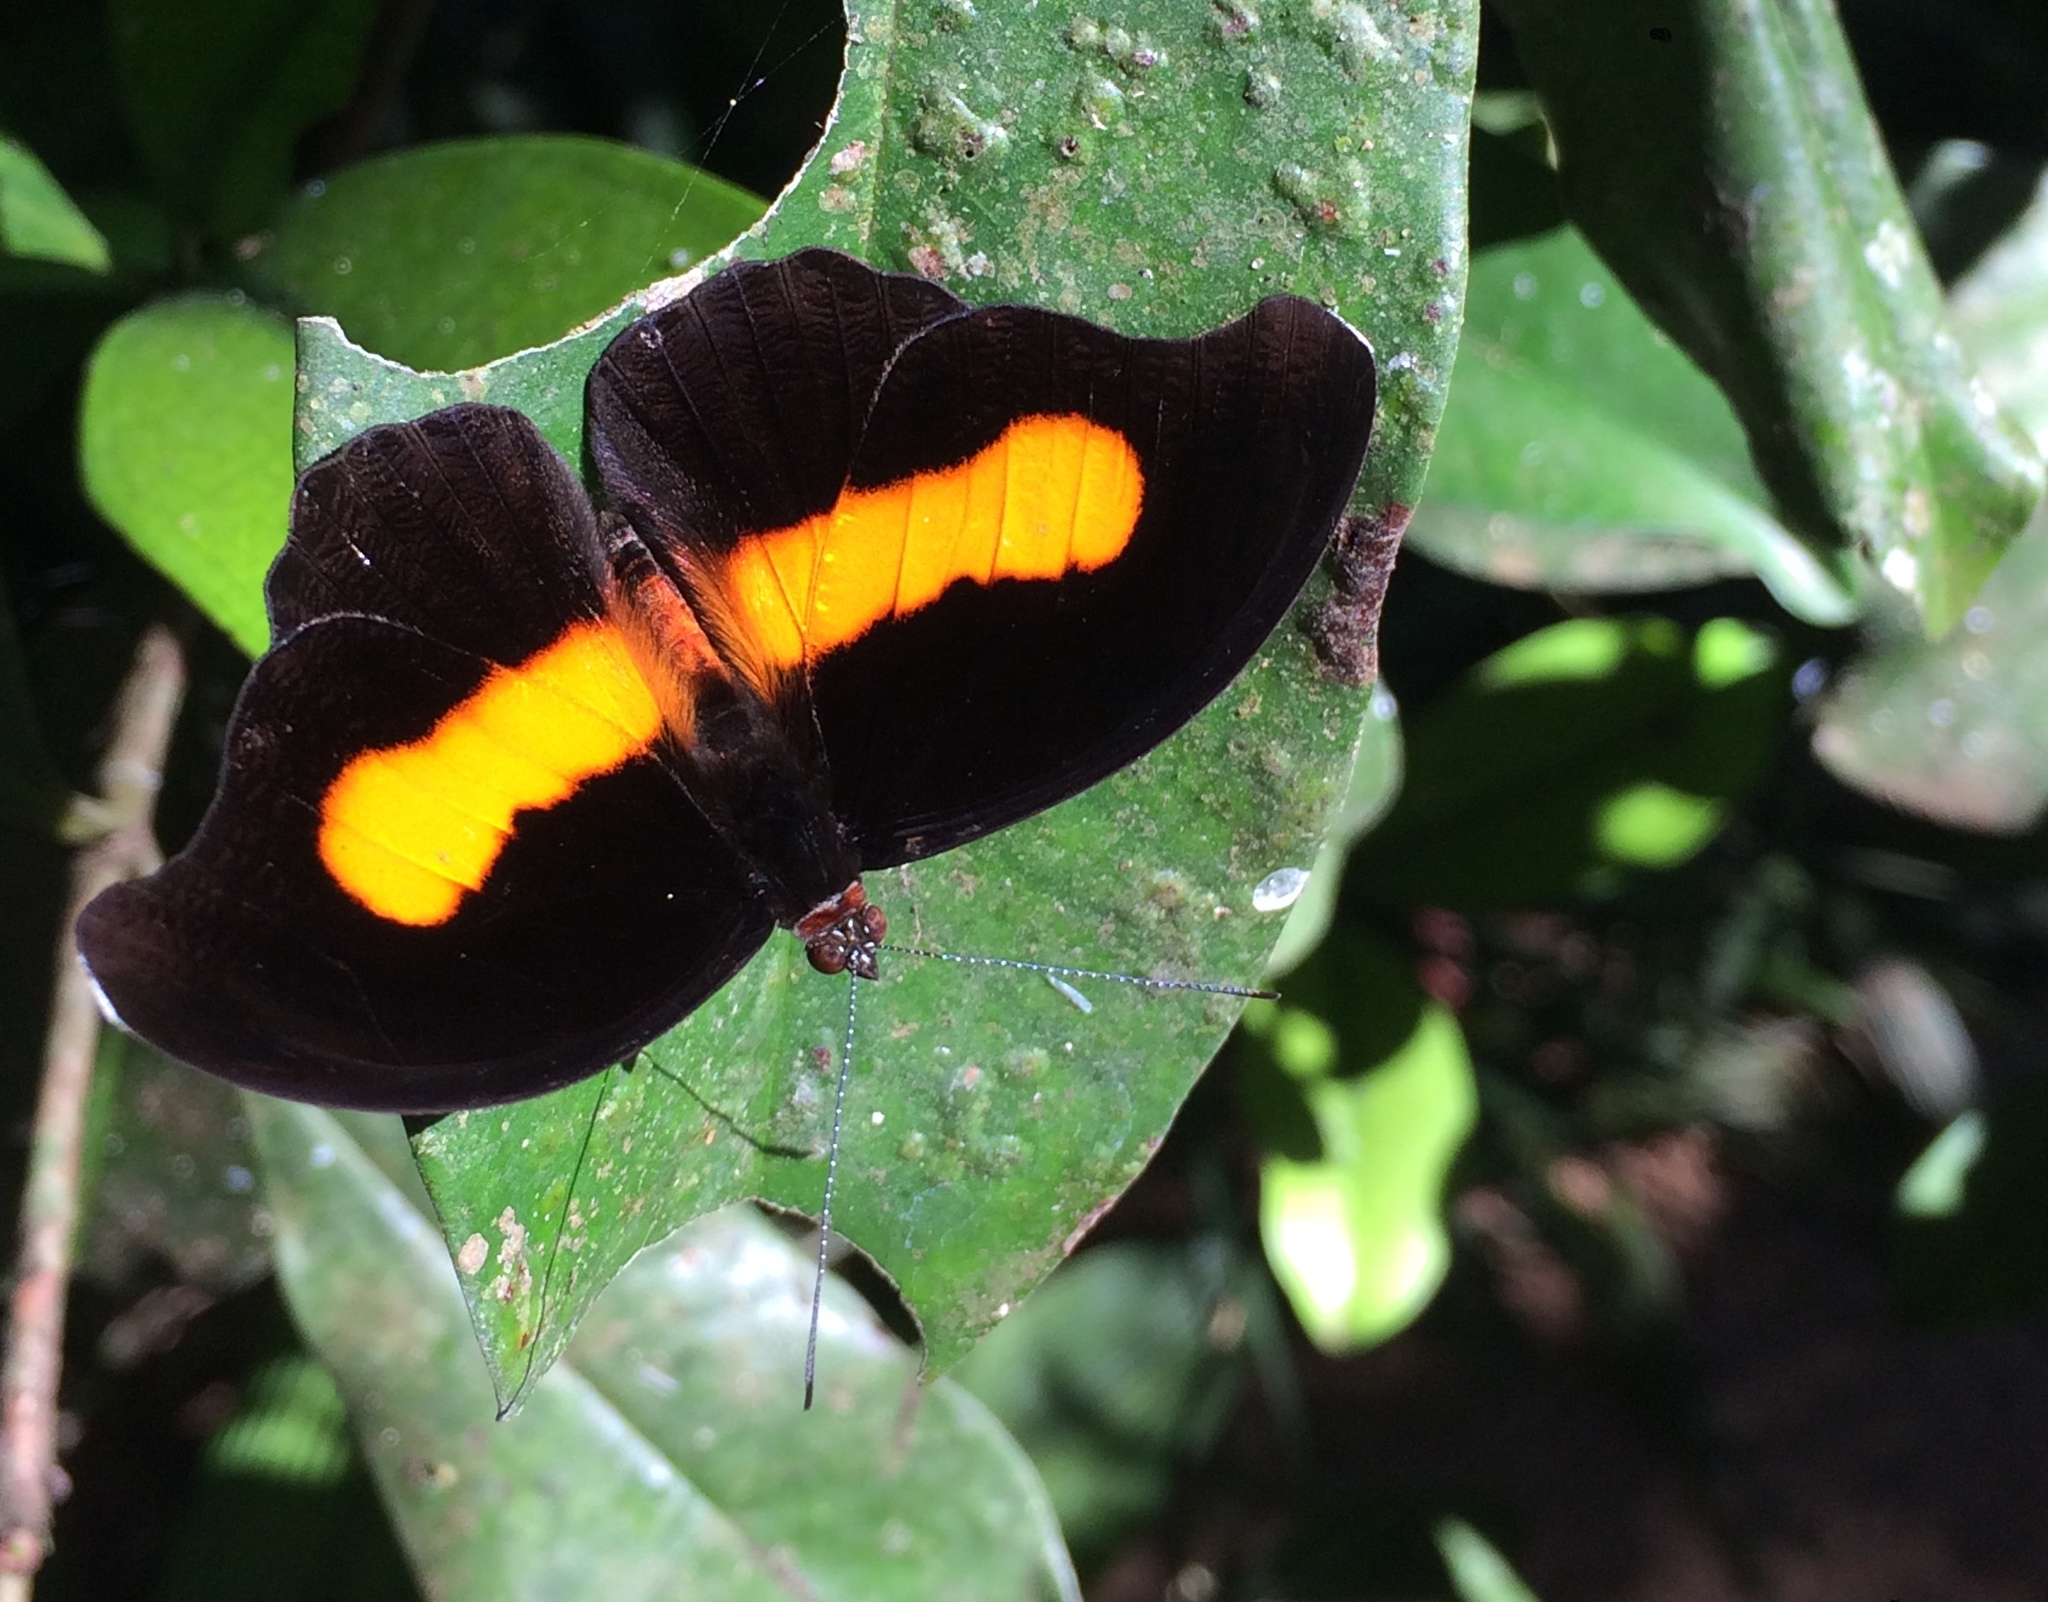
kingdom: Animalia
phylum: Arthropoda
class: Insecta
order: Lepidoptera
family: Nymphalidae
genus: Catonephele
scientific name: Catonephele acontius
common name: Unspotted firewing
